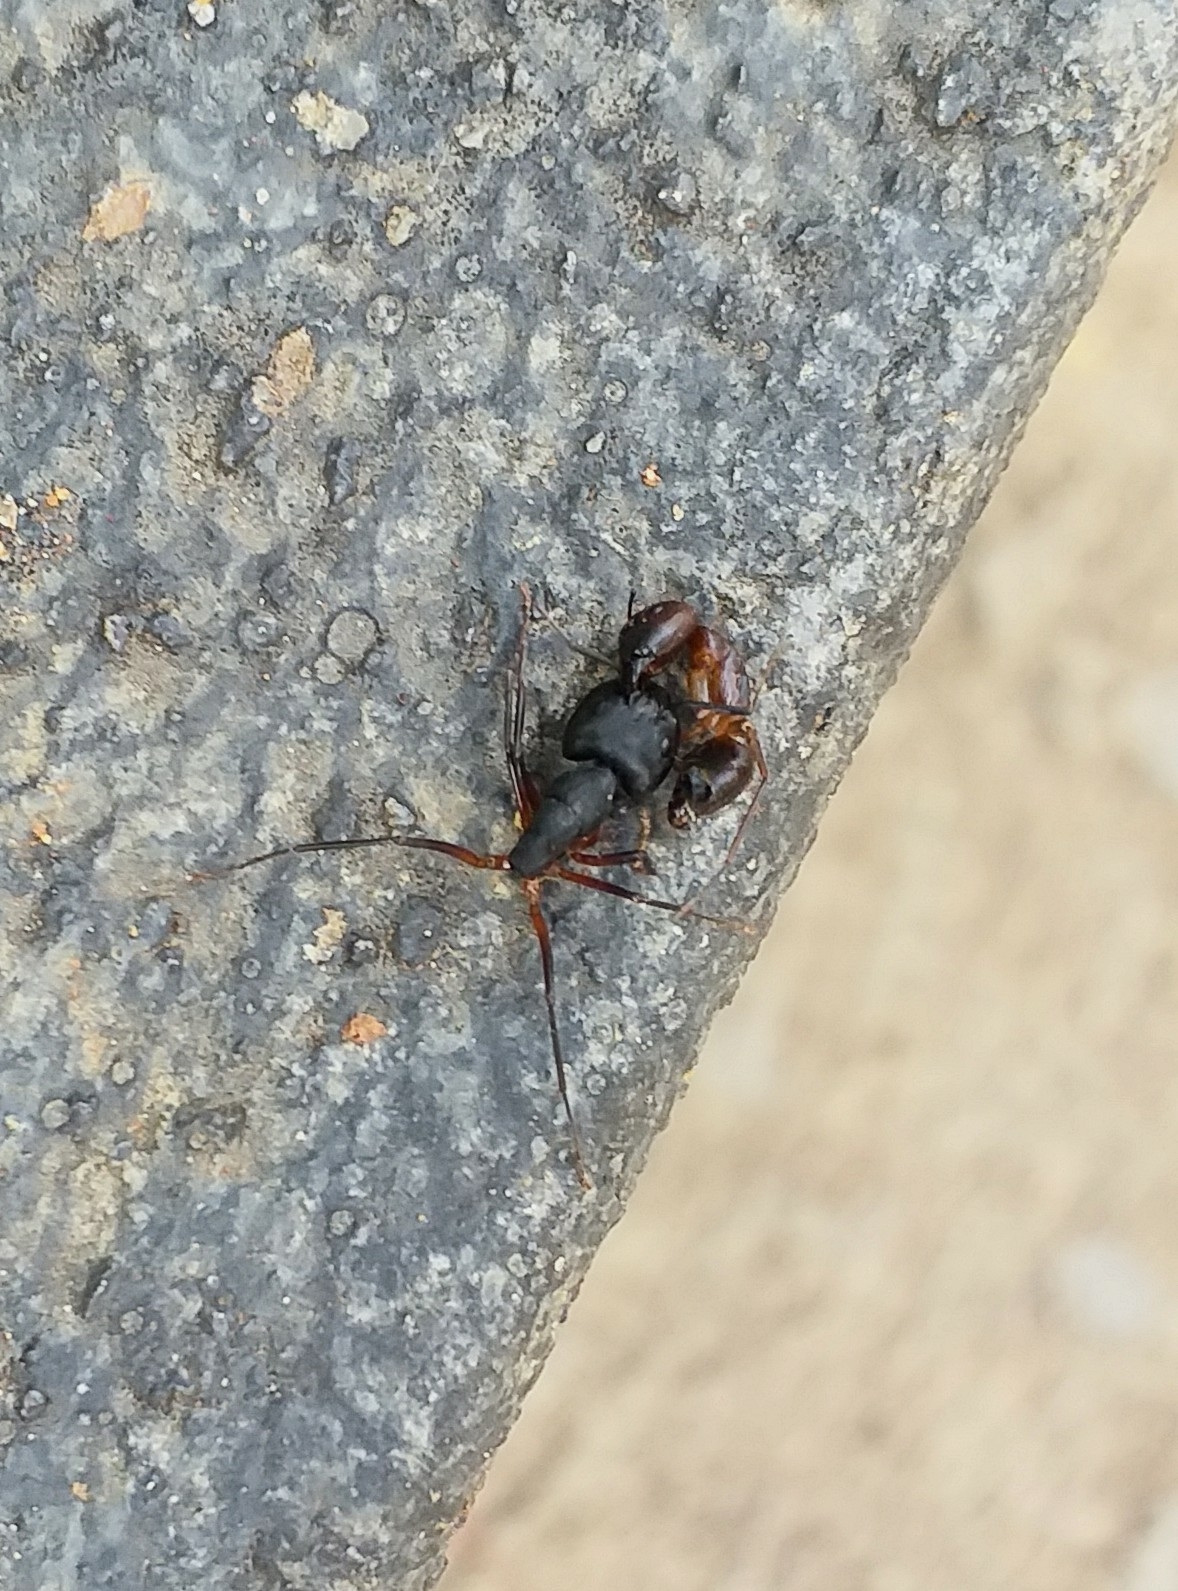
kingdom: Animalia
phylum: Arthropoda
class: Insecta
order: Hymenoptera
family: Formicidae
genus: Camponotus
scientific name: Camponotus compressus
